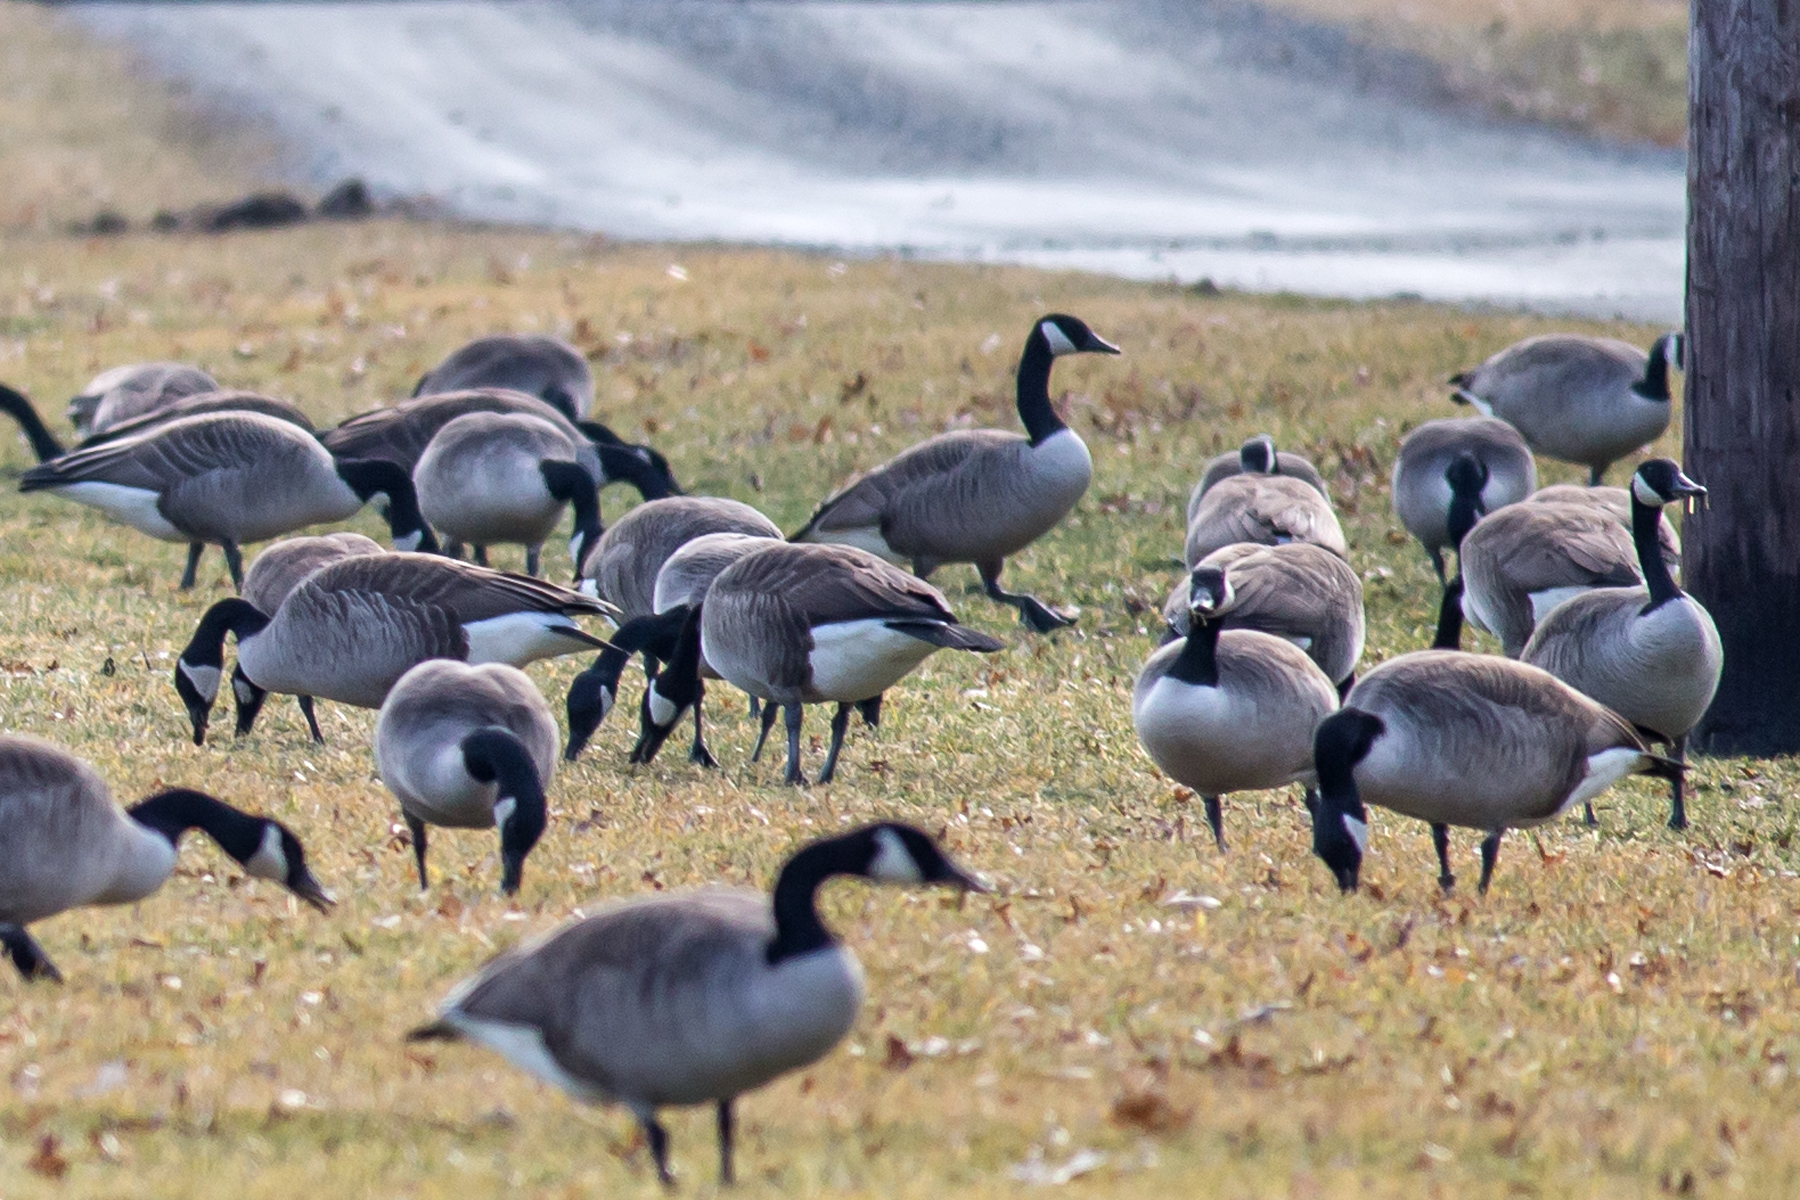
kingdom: Animalia
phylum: Chordata
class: Aves
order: Anseriformes
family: Anatidae
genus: Branta
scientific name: Branta canadensis
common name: Canada goose
